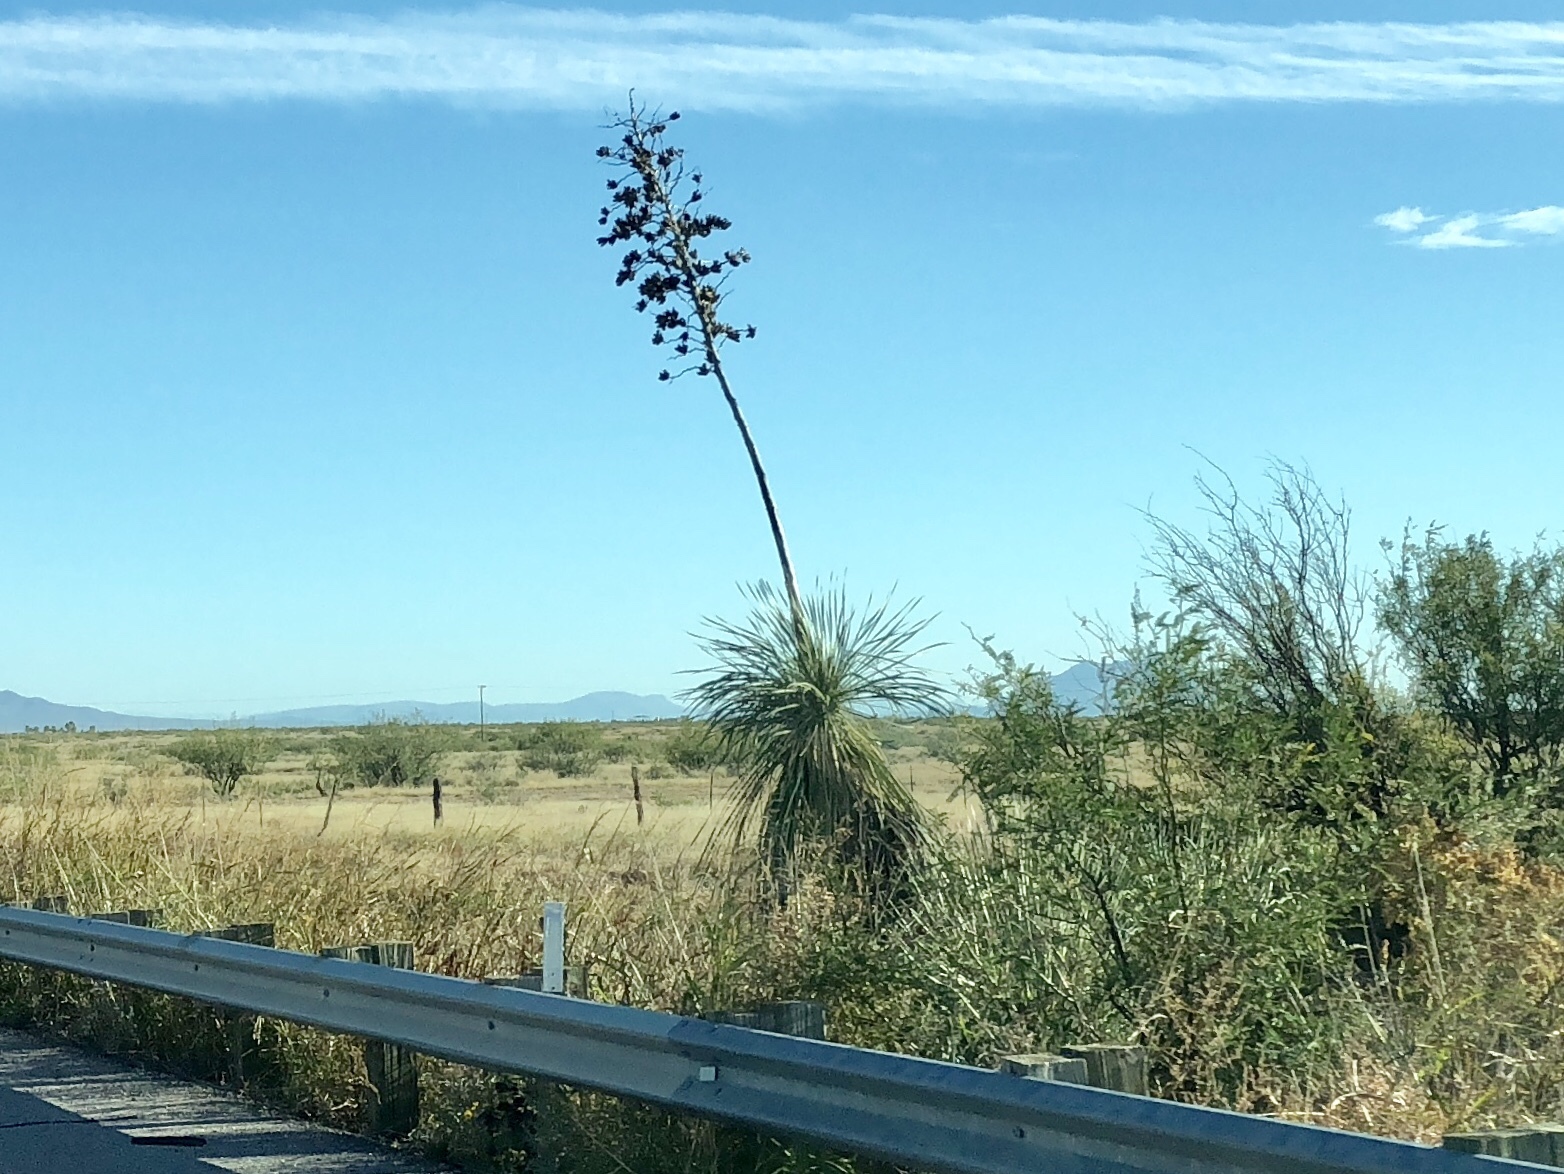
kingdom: Plantae
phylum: Tracheophyta
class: Liliopsida
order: Asparagales
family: Asparagaceae
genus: Yucca
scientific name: Yucca elata
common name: Palmella
